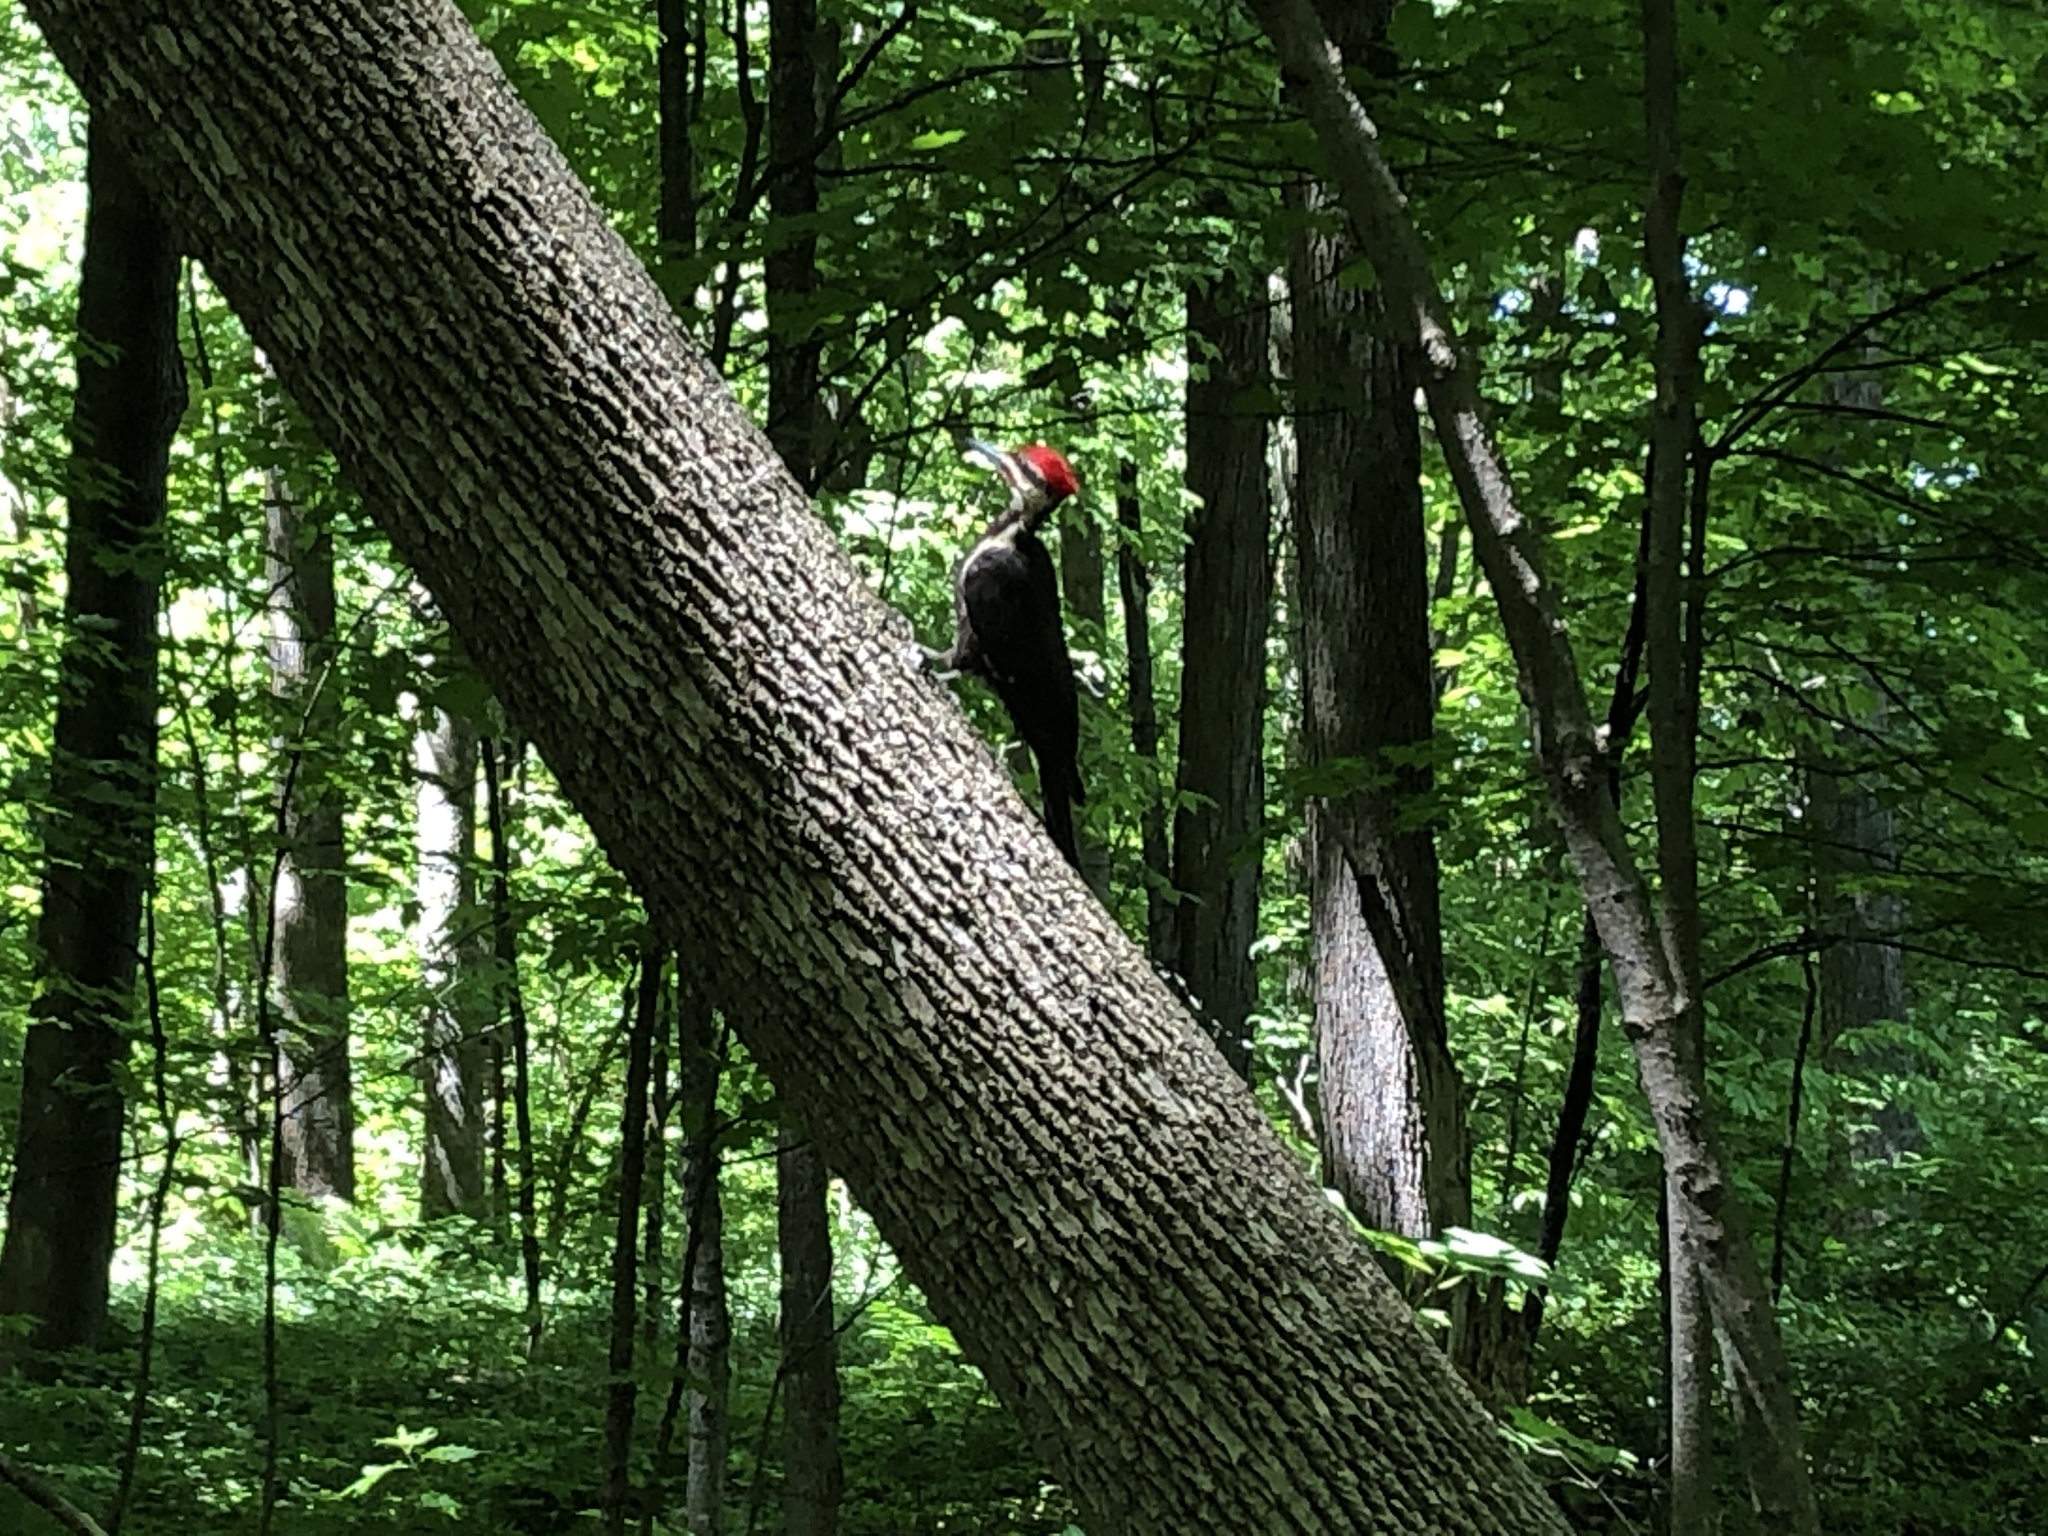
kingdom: Animalia
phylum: Chordata
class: Aves
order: Piciformes
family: Picidae
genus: Dryocopus
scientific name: Dryocopus pileatus
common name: Pileated woodpecker
